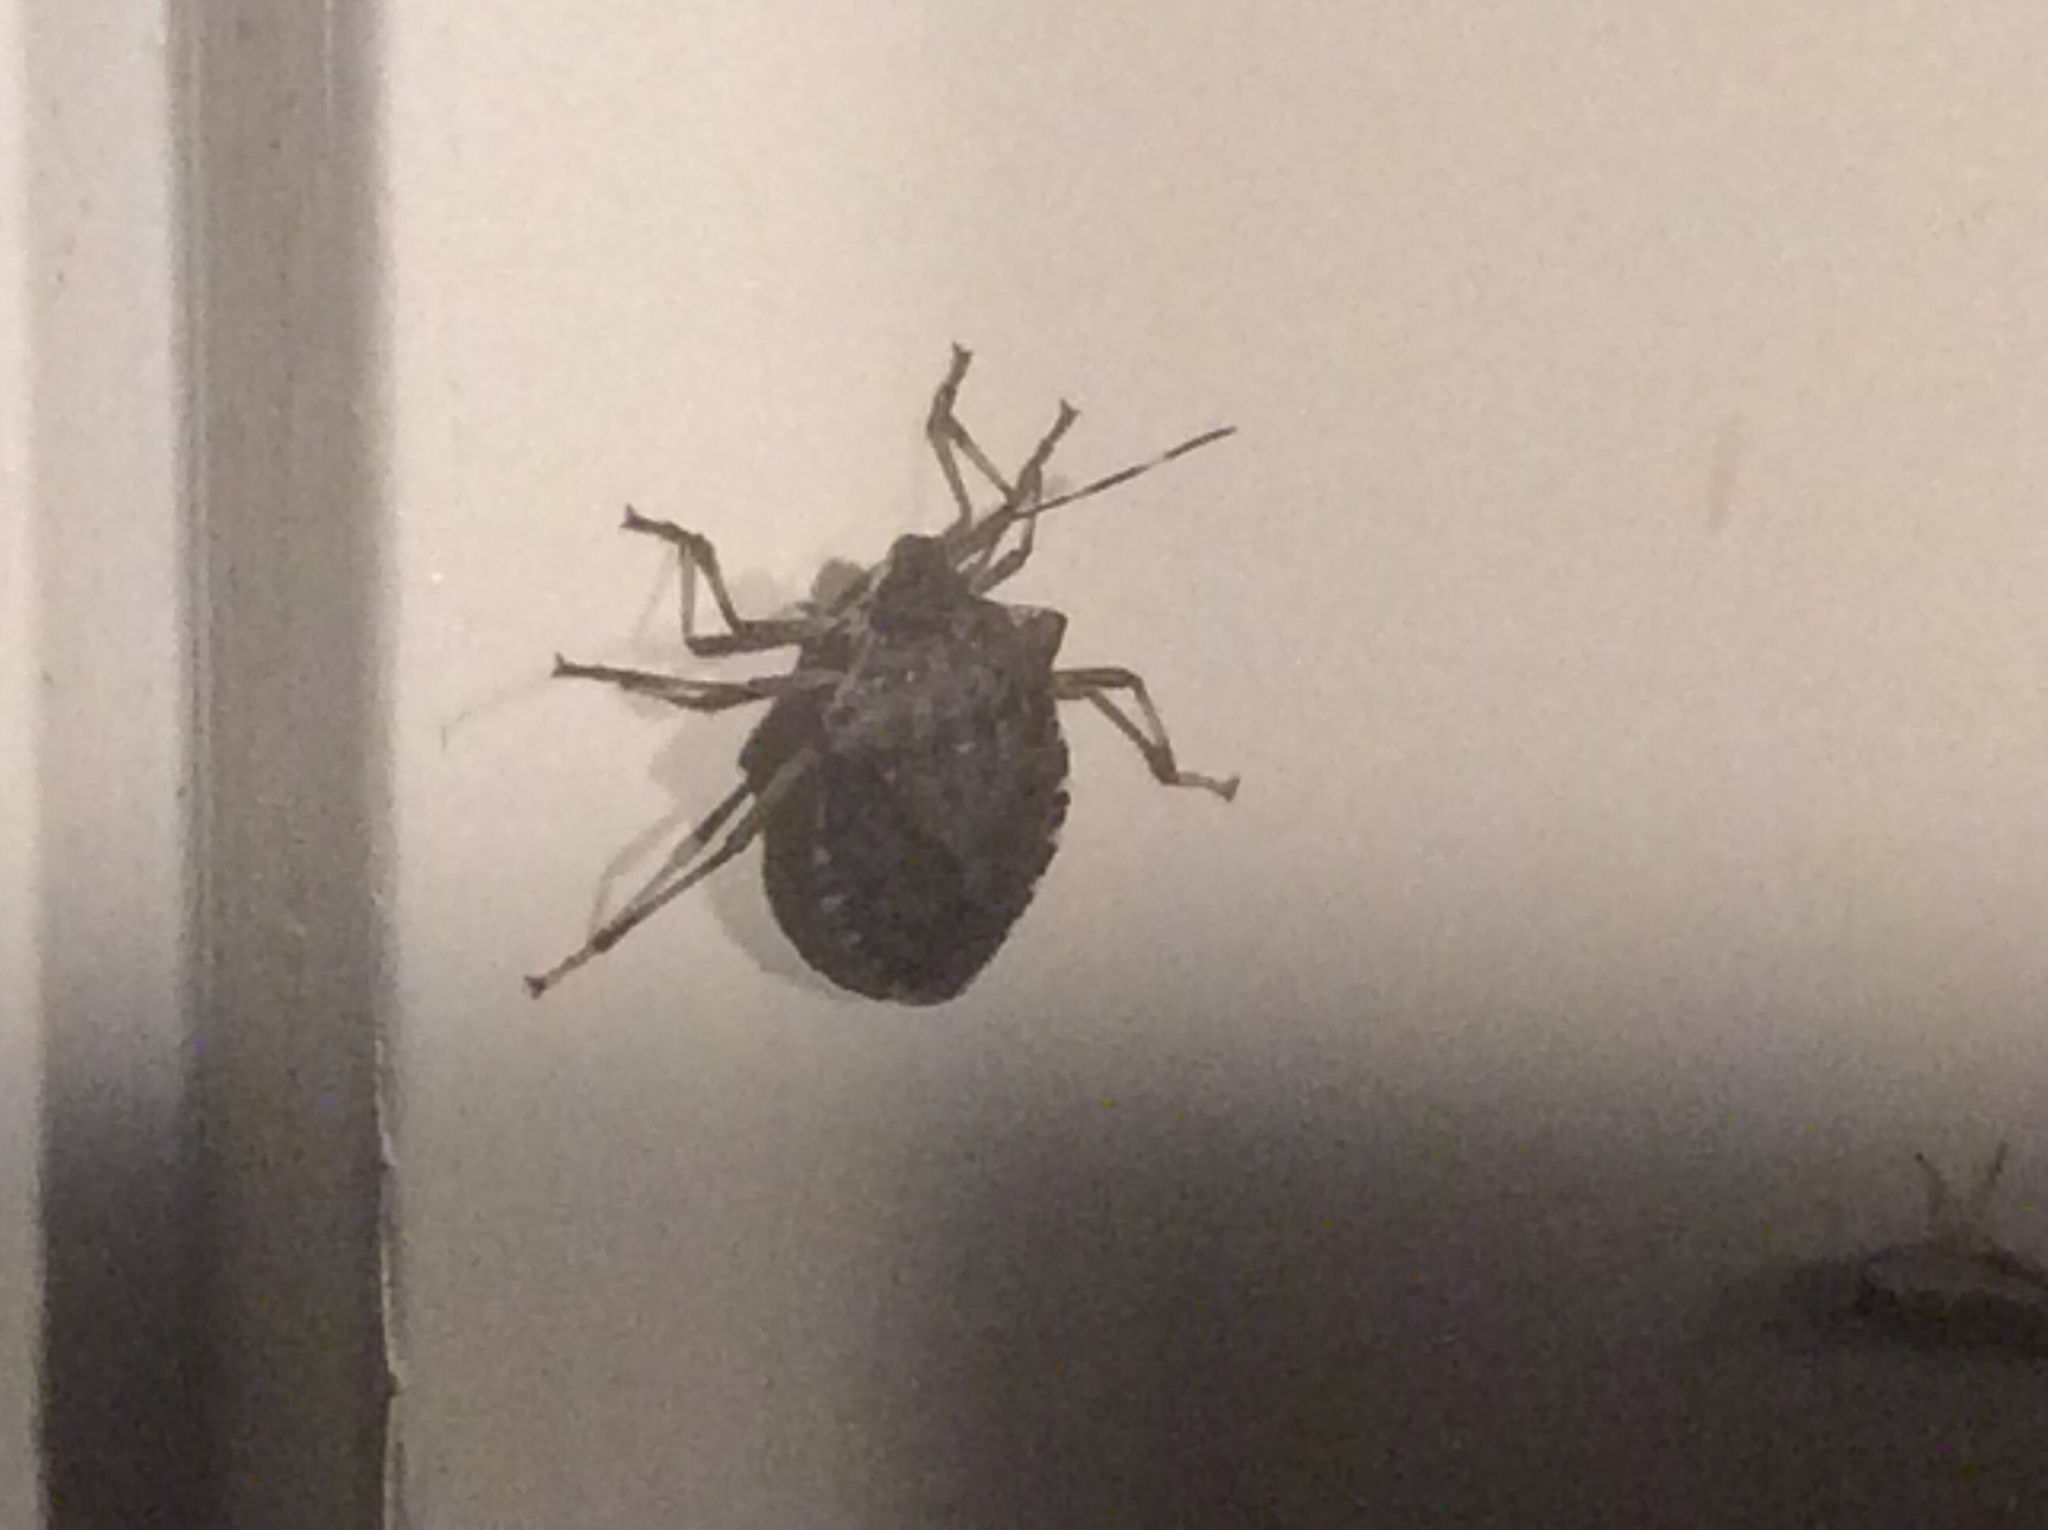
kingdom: Animalia
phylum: Arthropoda
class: Insecta
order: Hemiptera
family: Pentatomidae
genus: Halyomorpha
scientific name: Halyomorpha halys
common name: Brown marmorated stink bug
